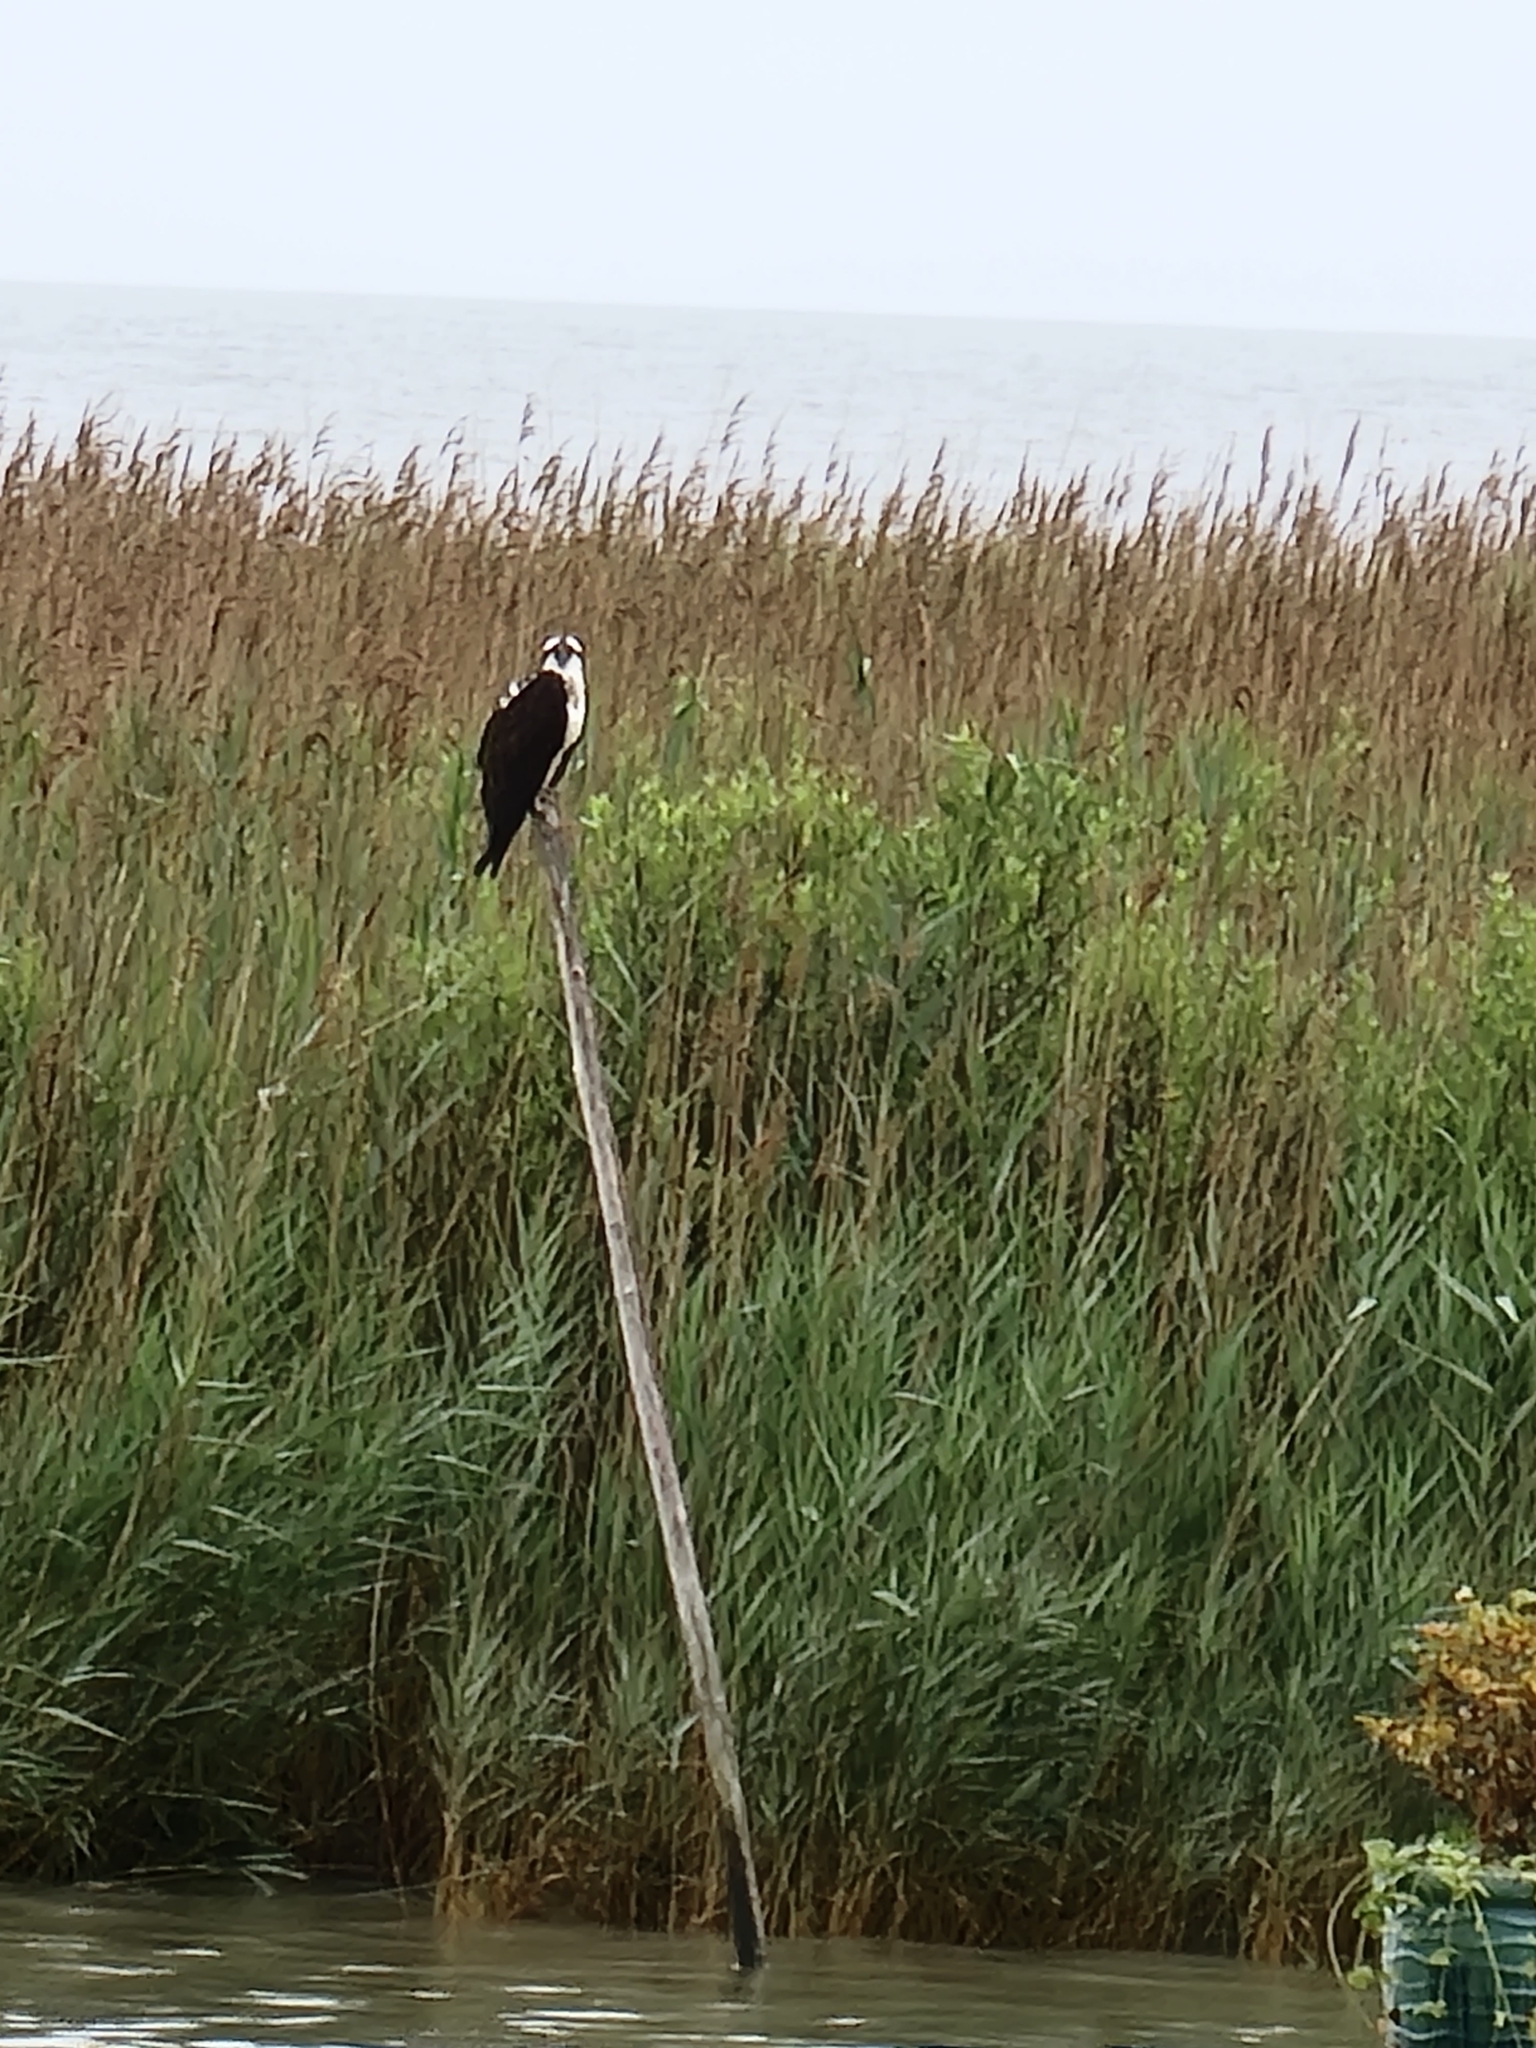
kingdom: Animalia
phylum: Chordata
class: Aves
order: Accipitriformes
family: Pandionidae
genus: Pandion
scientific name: Pandion haliaetus
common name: Osprey
